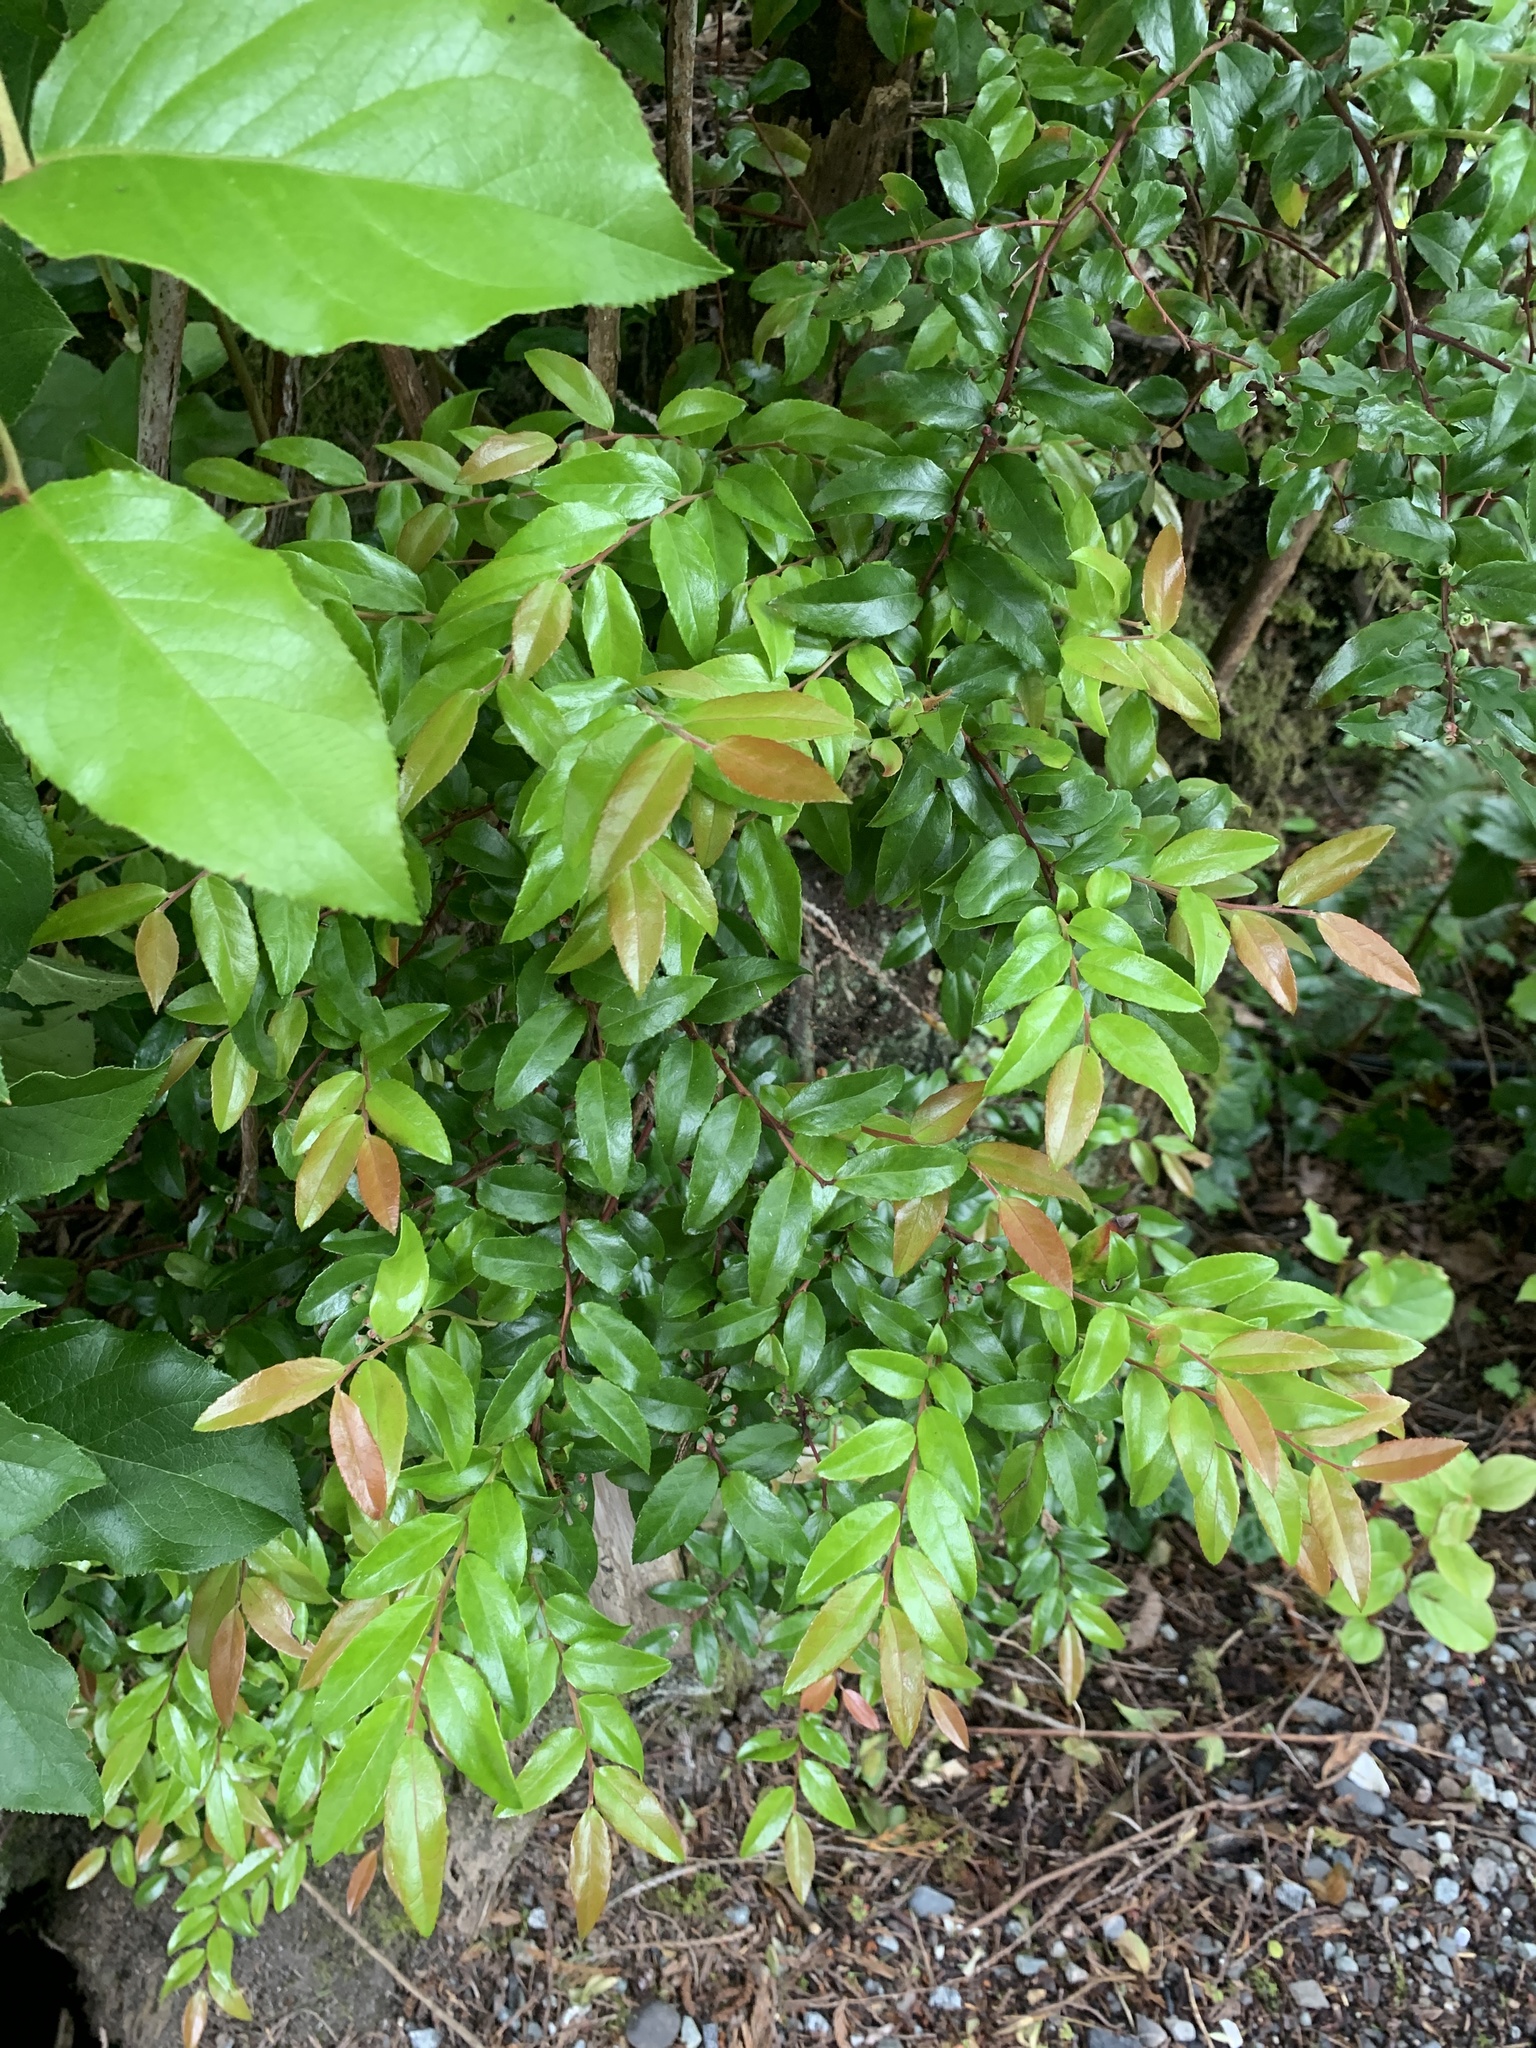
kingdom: Plantae
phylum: Tracheophyta
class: Magnoliopsida
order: Ericales
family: Ericaceae
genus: Vaccinium
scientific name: Vaccinium ovatum
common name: California-huckleberry
